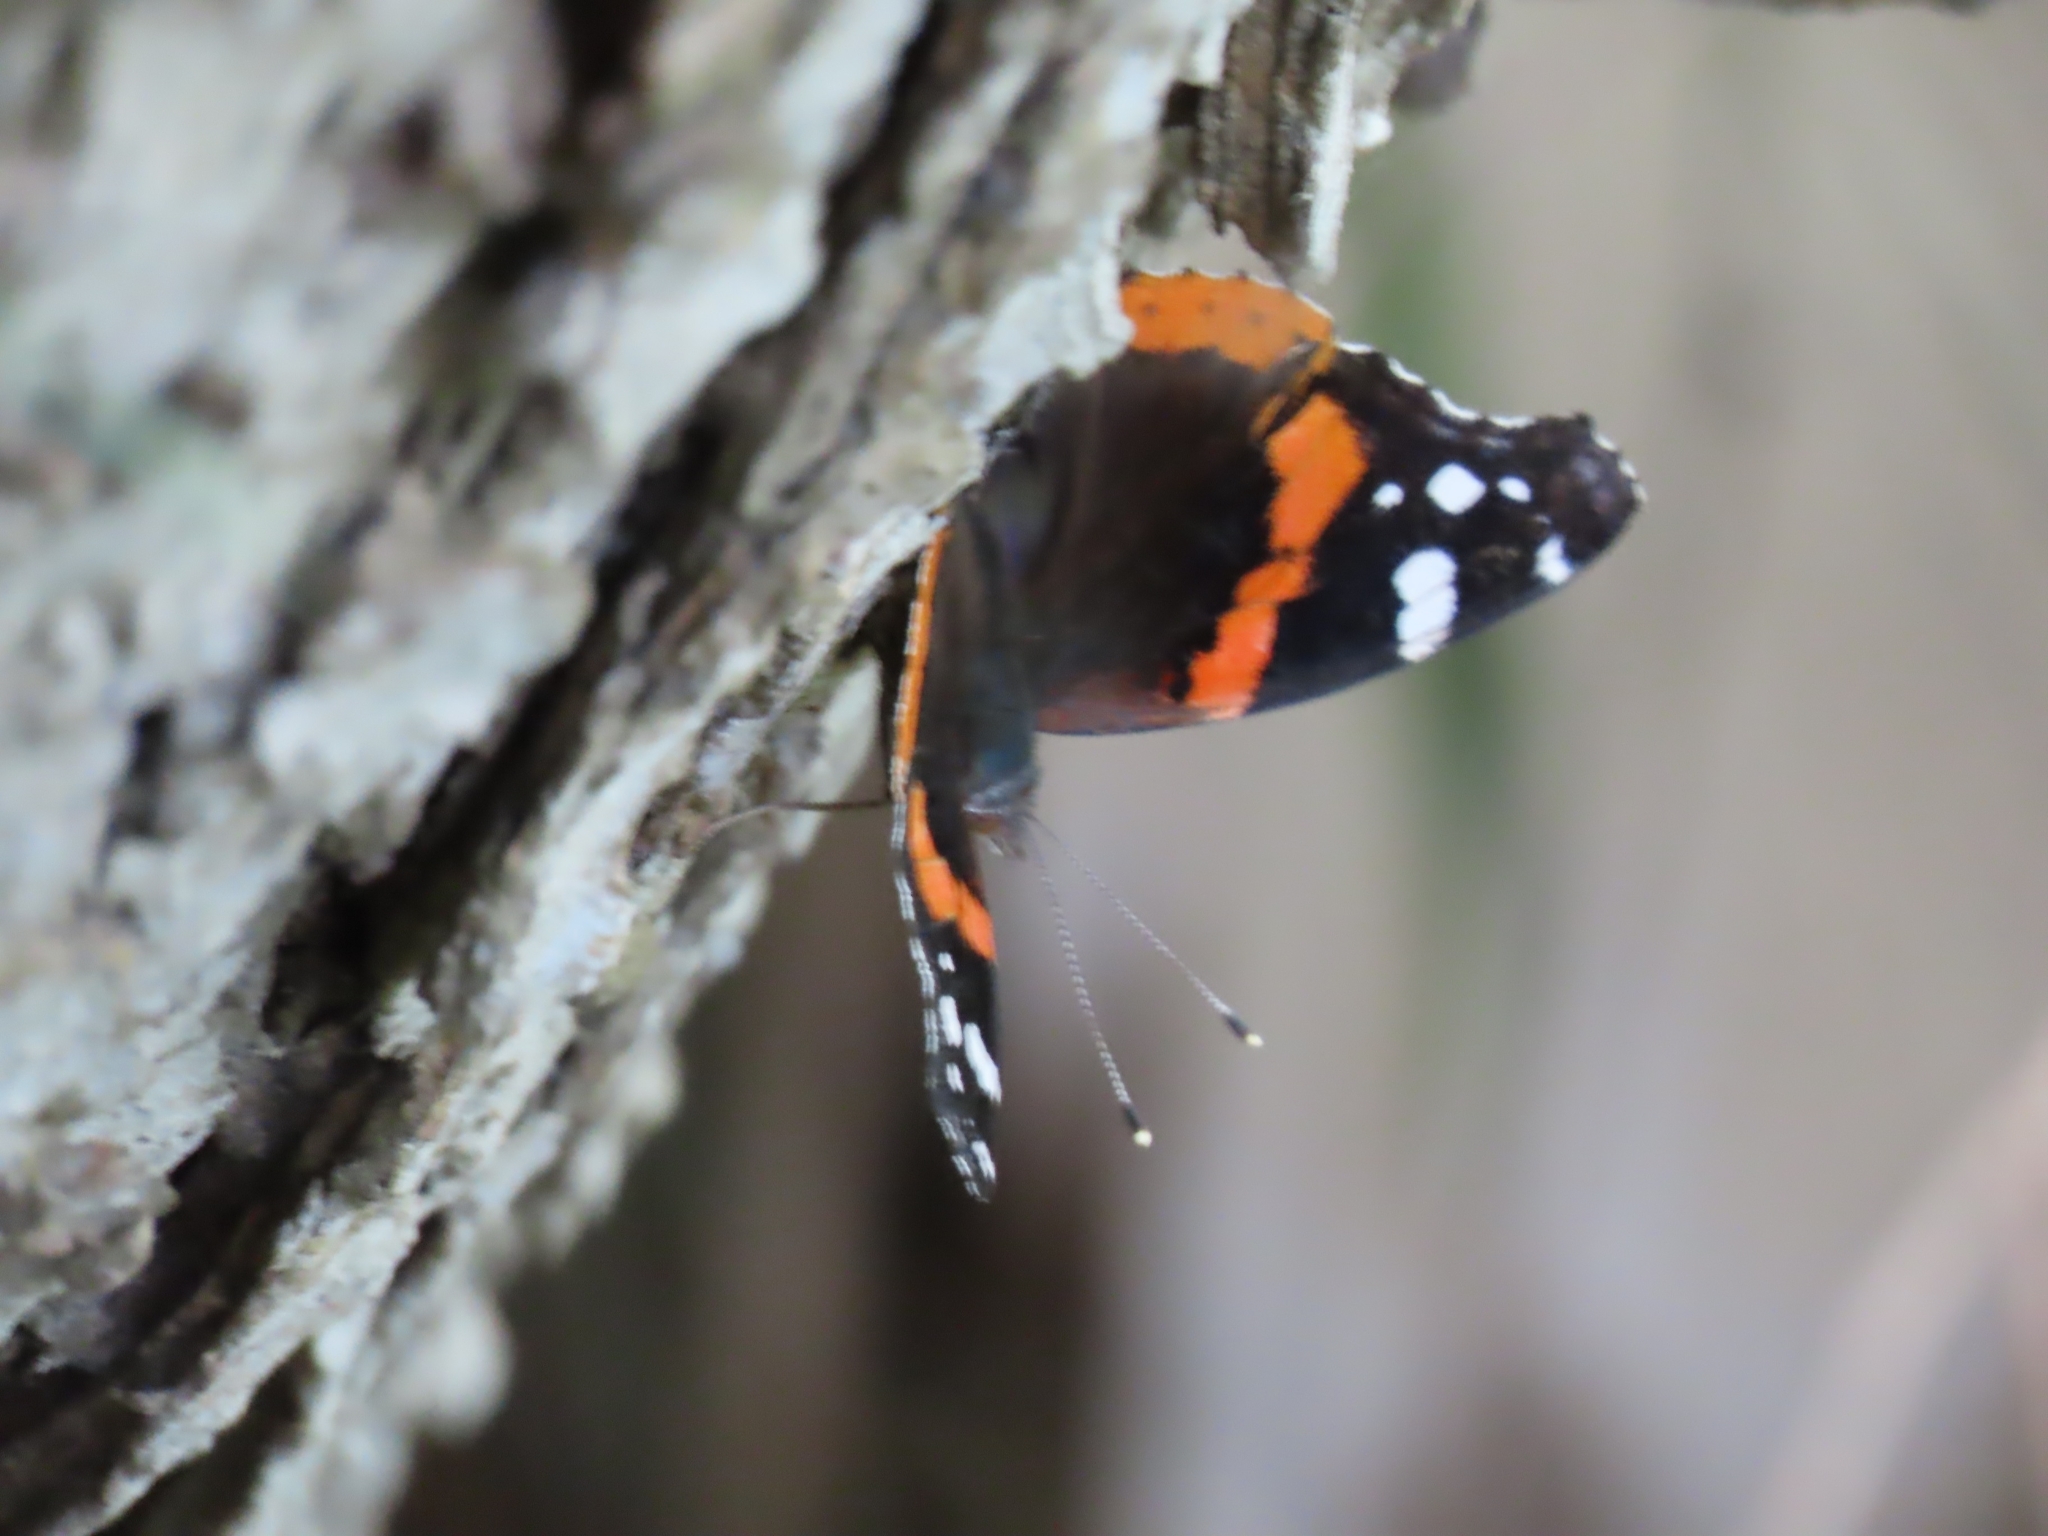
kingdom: Animalia
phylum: Arthropoda
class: Insecta
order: Lepidoptera
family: Nymphalidae
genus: Vanessa
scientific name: Vanessa atalanta
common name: Red admiral
